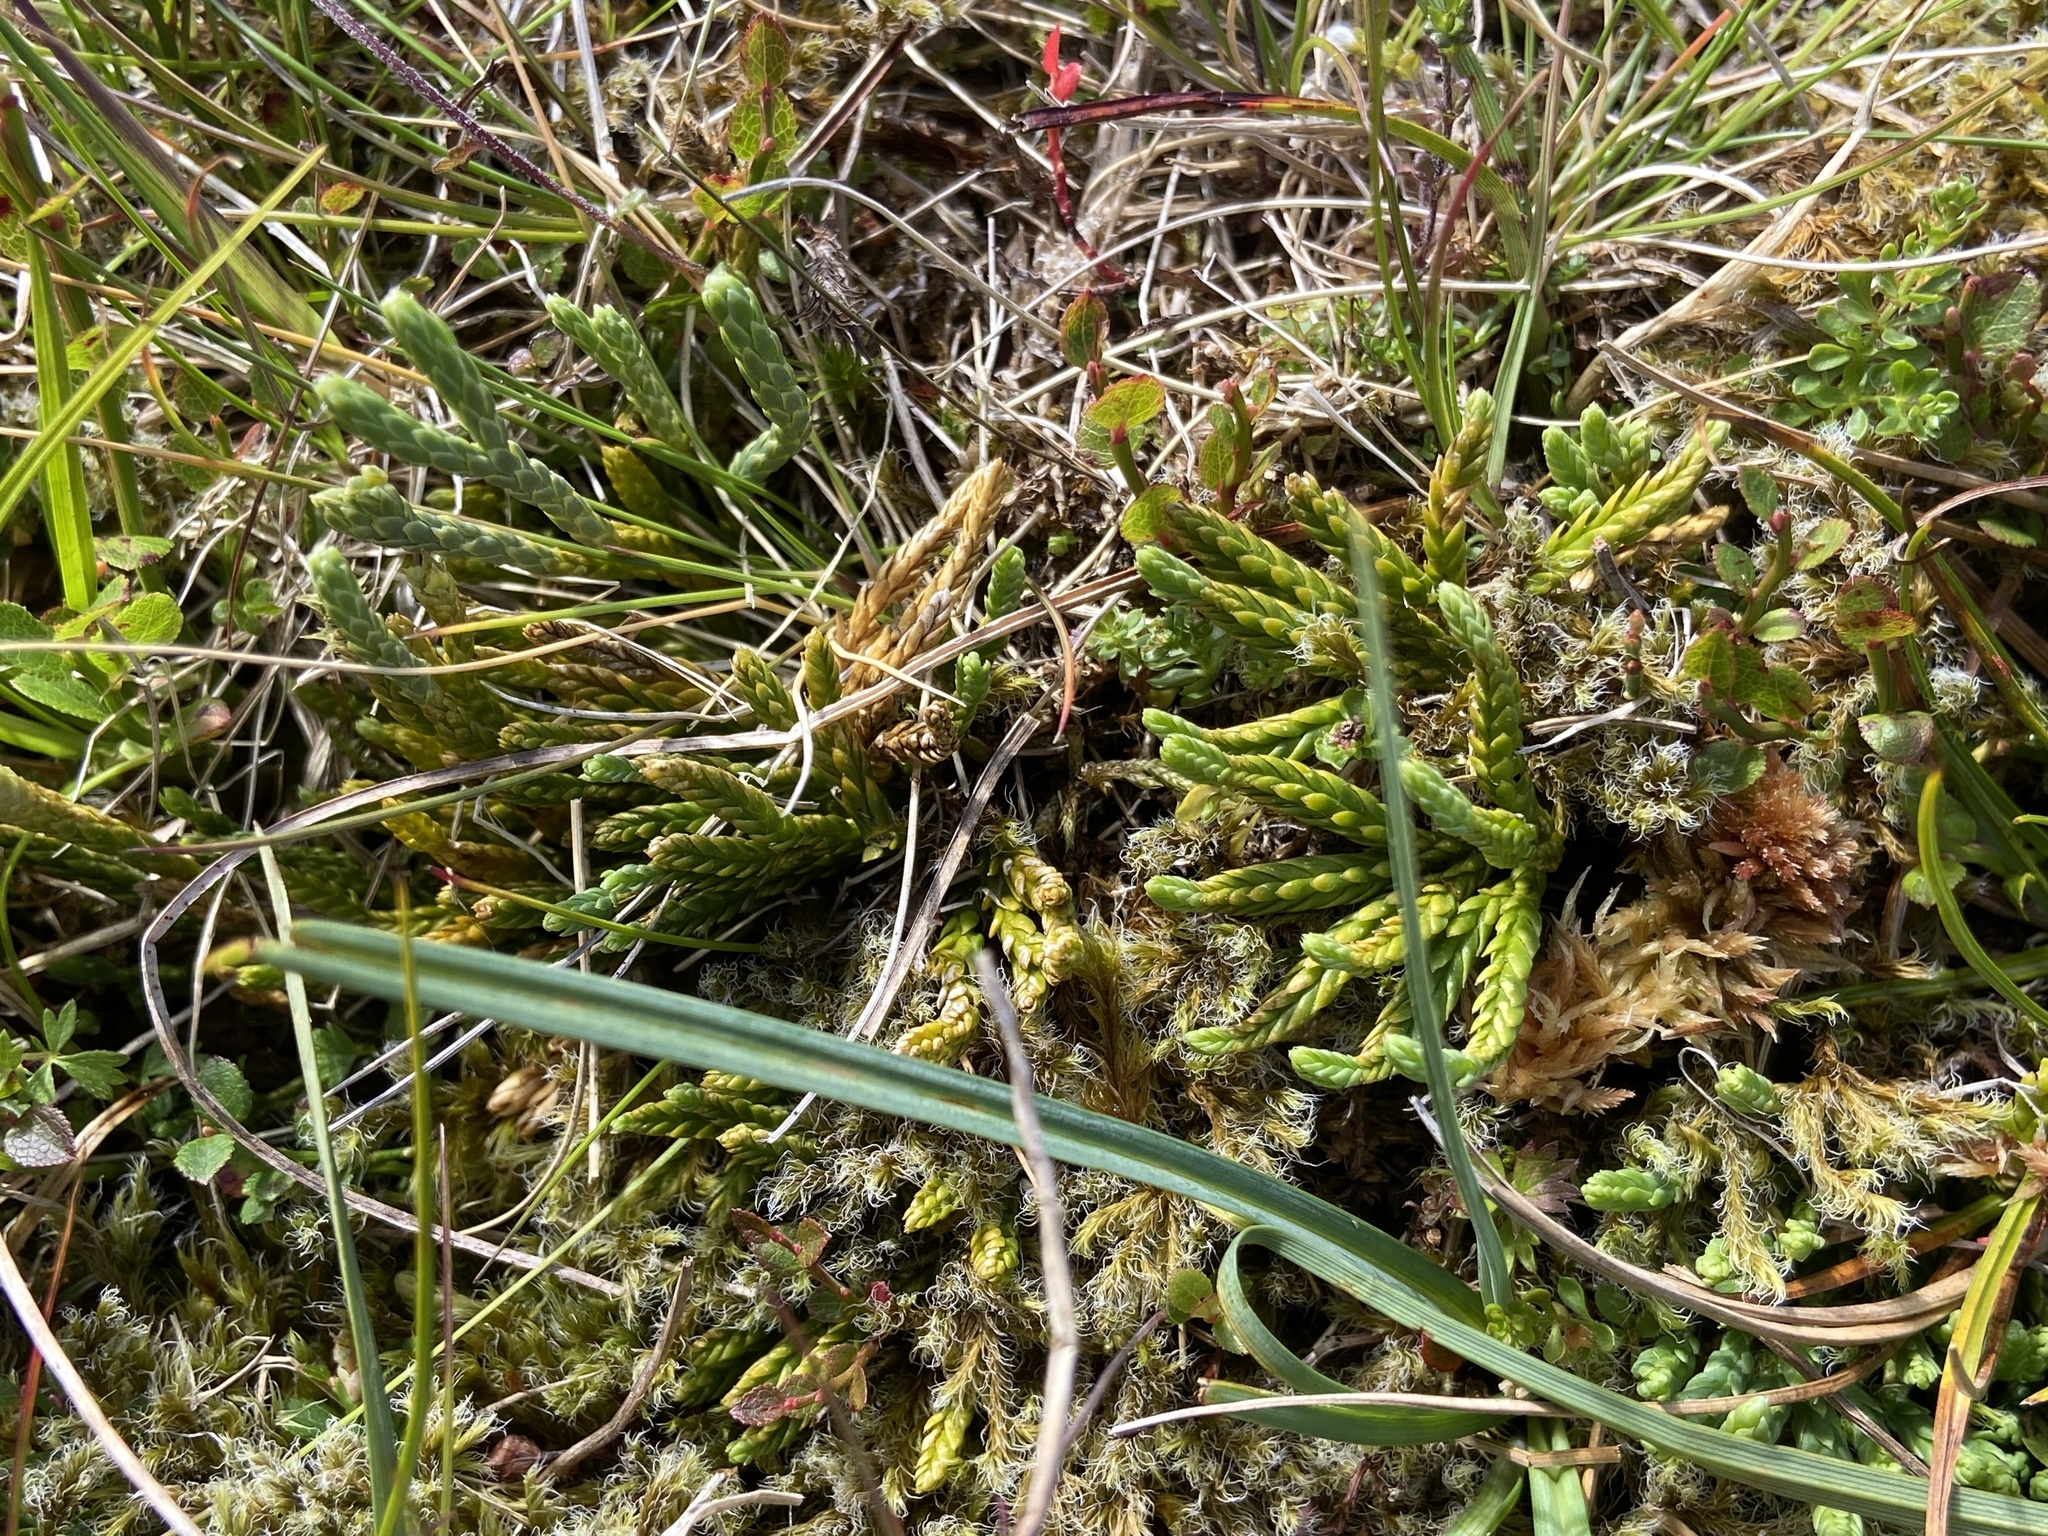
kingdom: Plantae
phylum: Tracheophyta
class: Lycopodiopsida
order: Lycopodiales
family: Lycopodiaceae
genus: Diphasiastrum
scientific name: Diphasiastrum alpinum
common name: Alpine clubmoss
